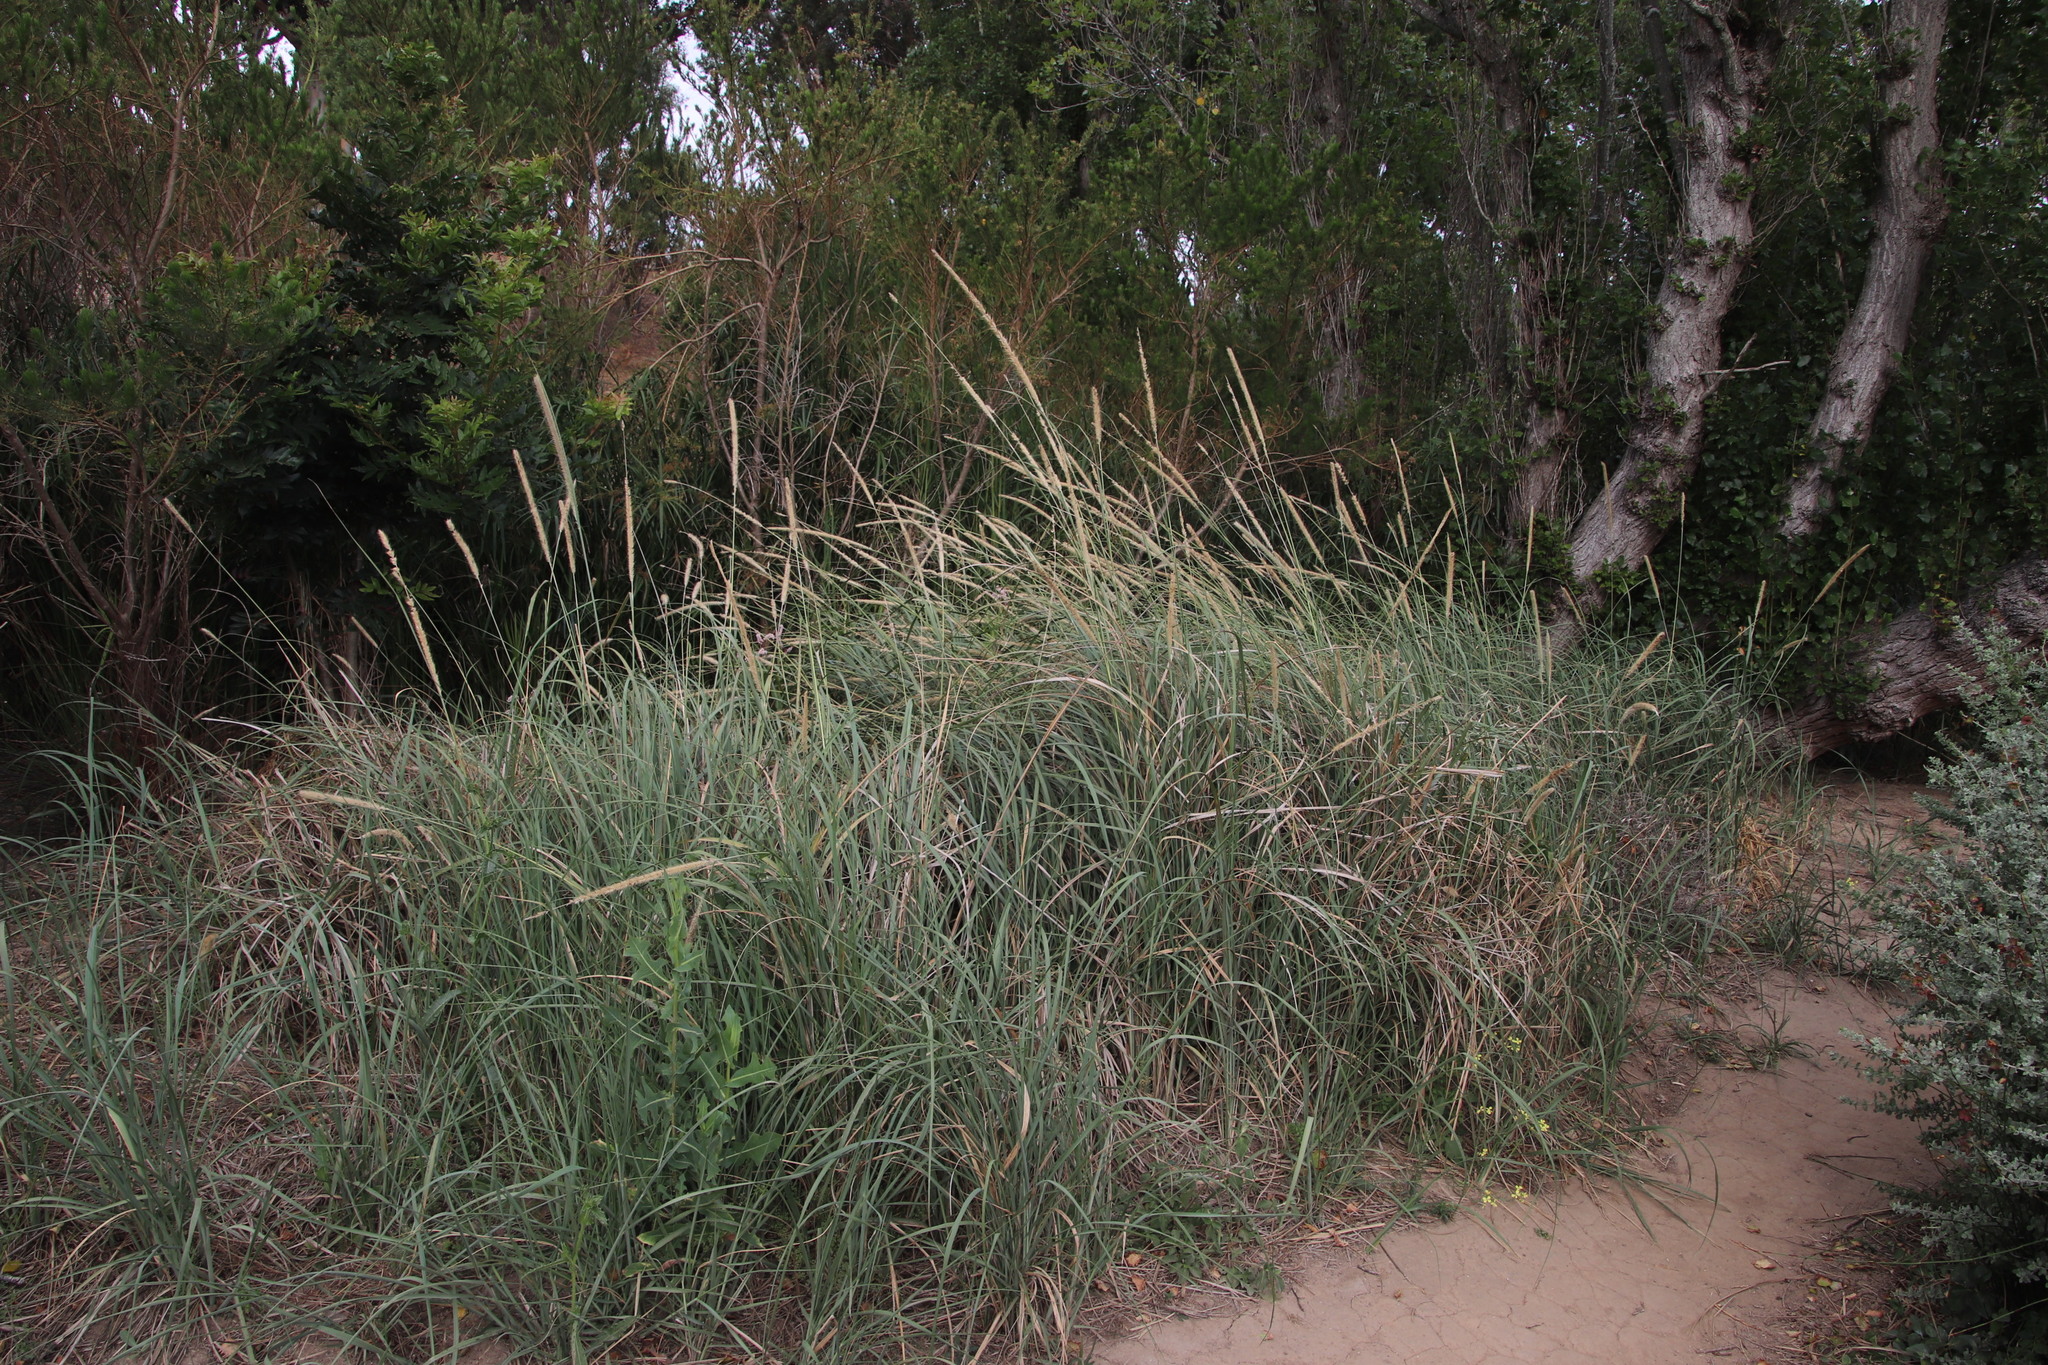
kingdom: Plantae
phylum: Tracheophyta
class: Liliopsida
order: Poales
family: Poaceae
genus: Cenchrus
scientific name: Cenchrus caudatus
